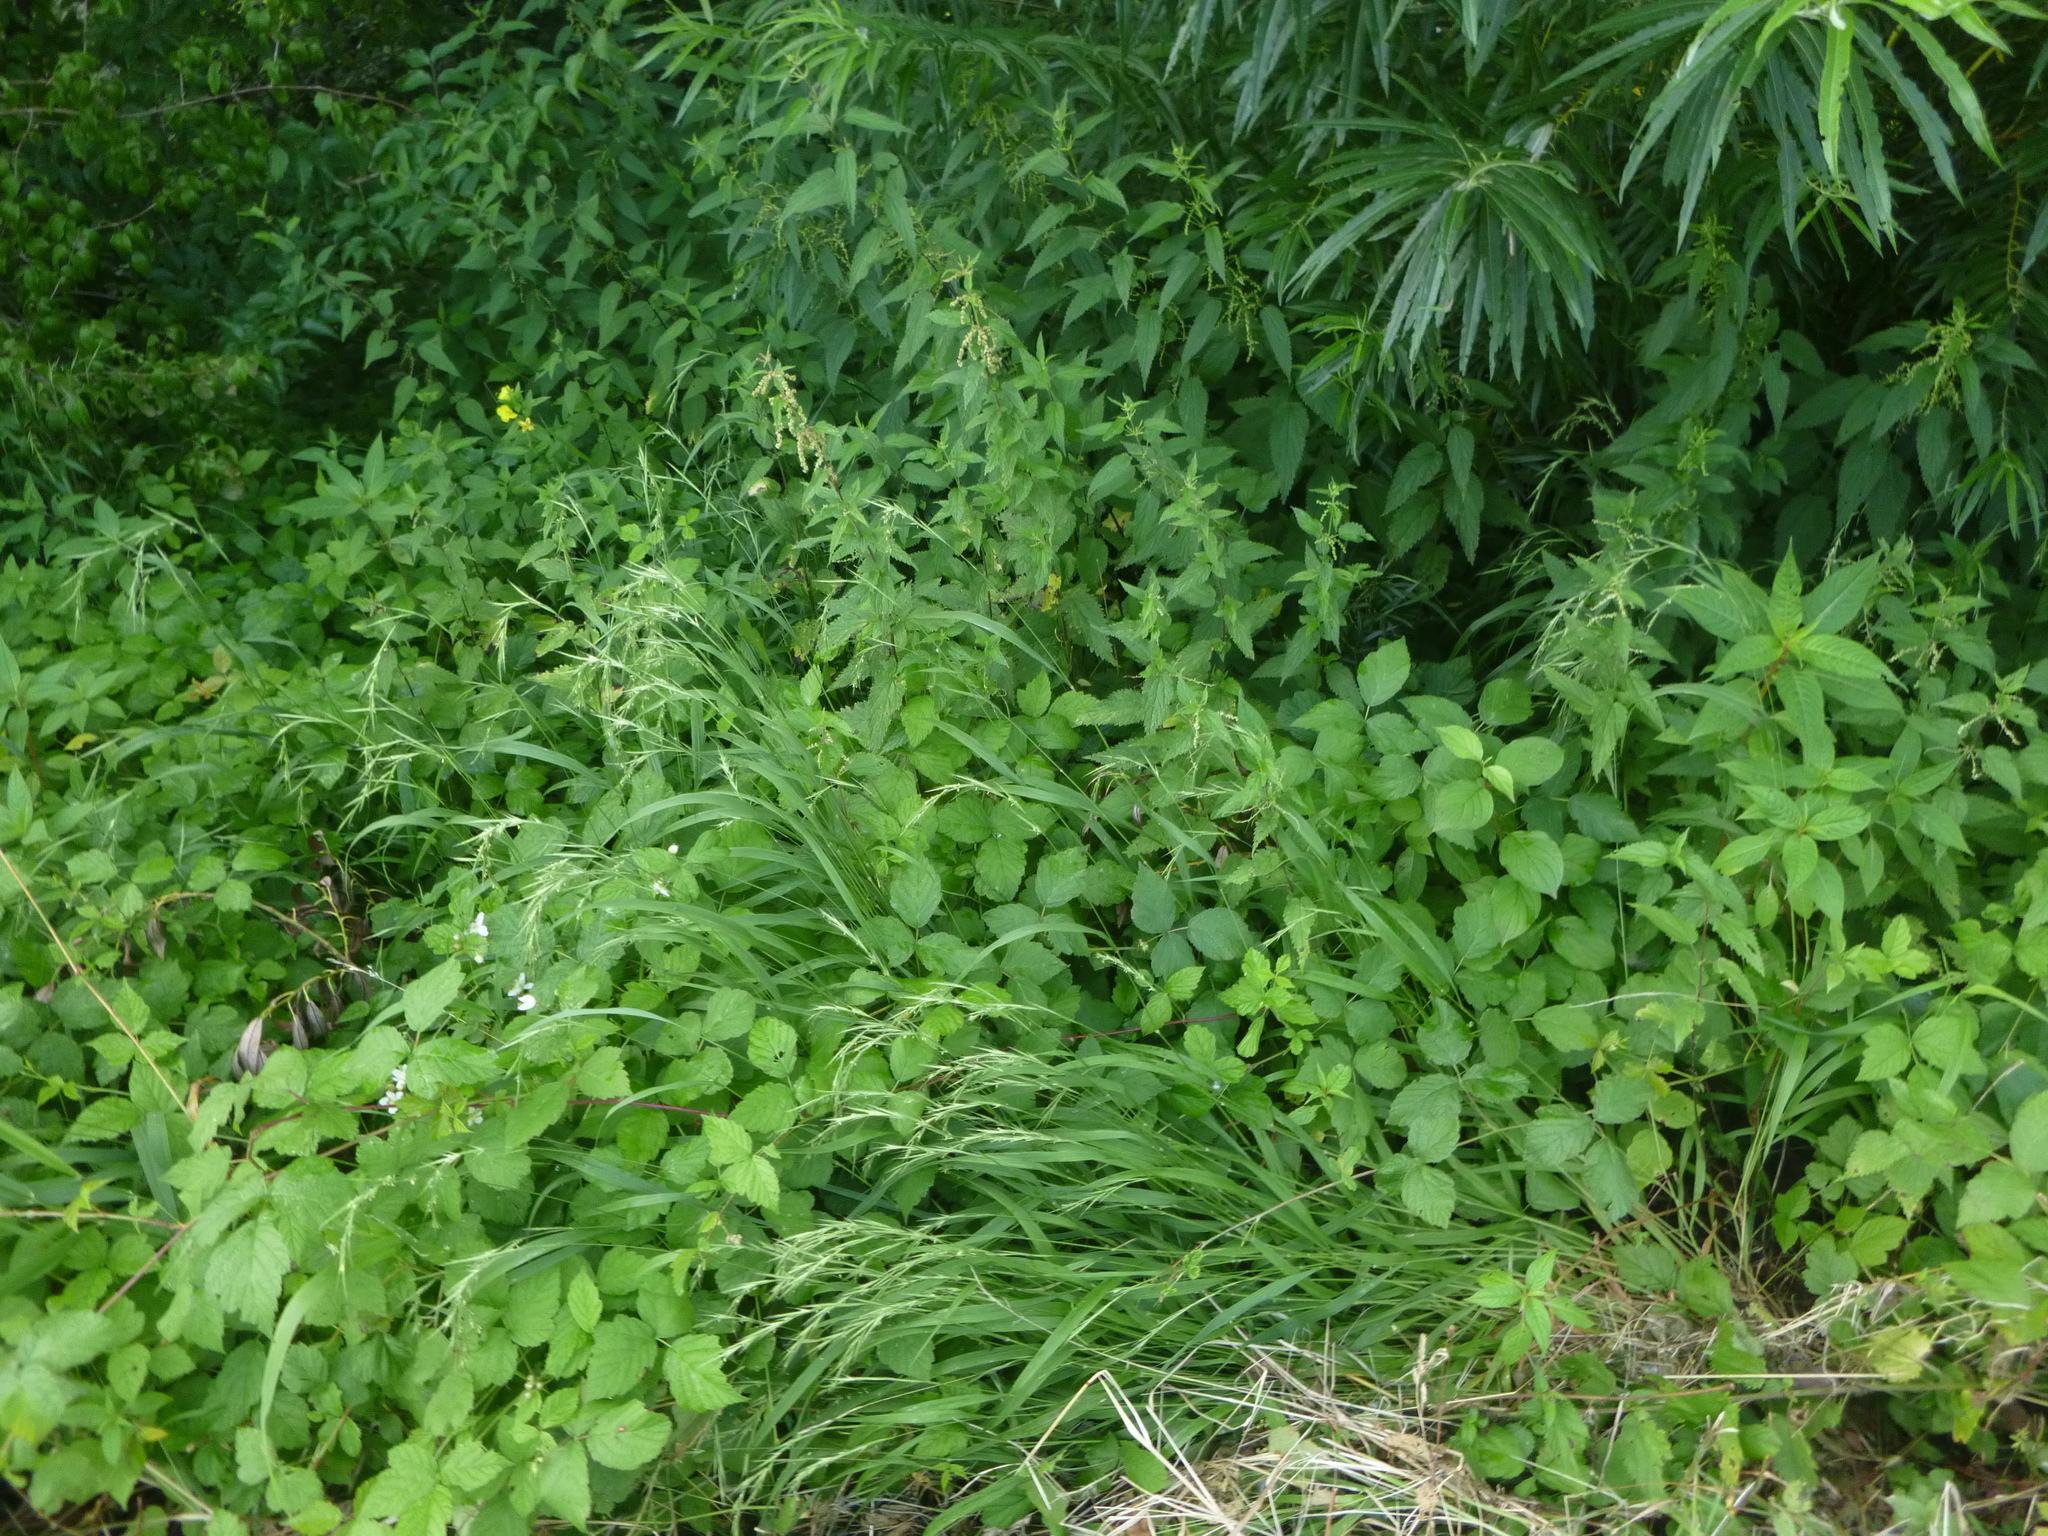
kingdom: Plantae
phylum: Tracheophyta
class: Liliopsida
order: Poales
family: Poaceae
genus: Brachypodium
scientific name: Brachypodium sylvaticum
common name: False-brome
